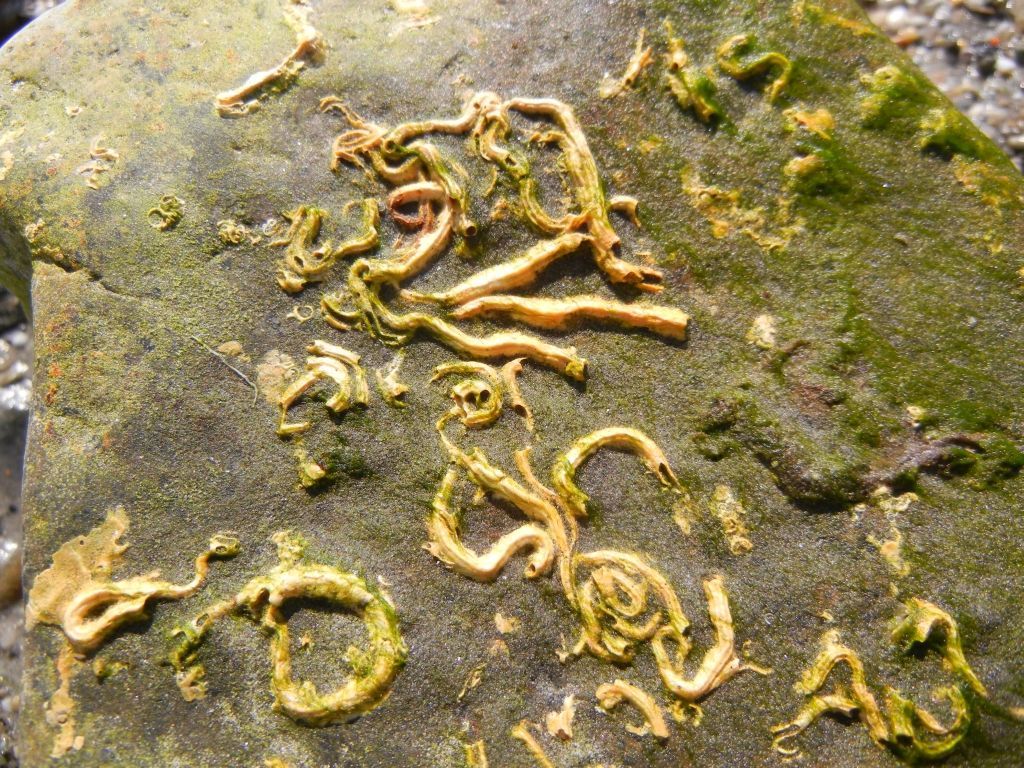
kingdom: Animalia
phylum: Annelida
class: Polychaeta
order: Sabellida
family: Serpulidae
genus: Spirobranchus
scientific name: Spirobranchus lamarcki
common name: Keelworm
